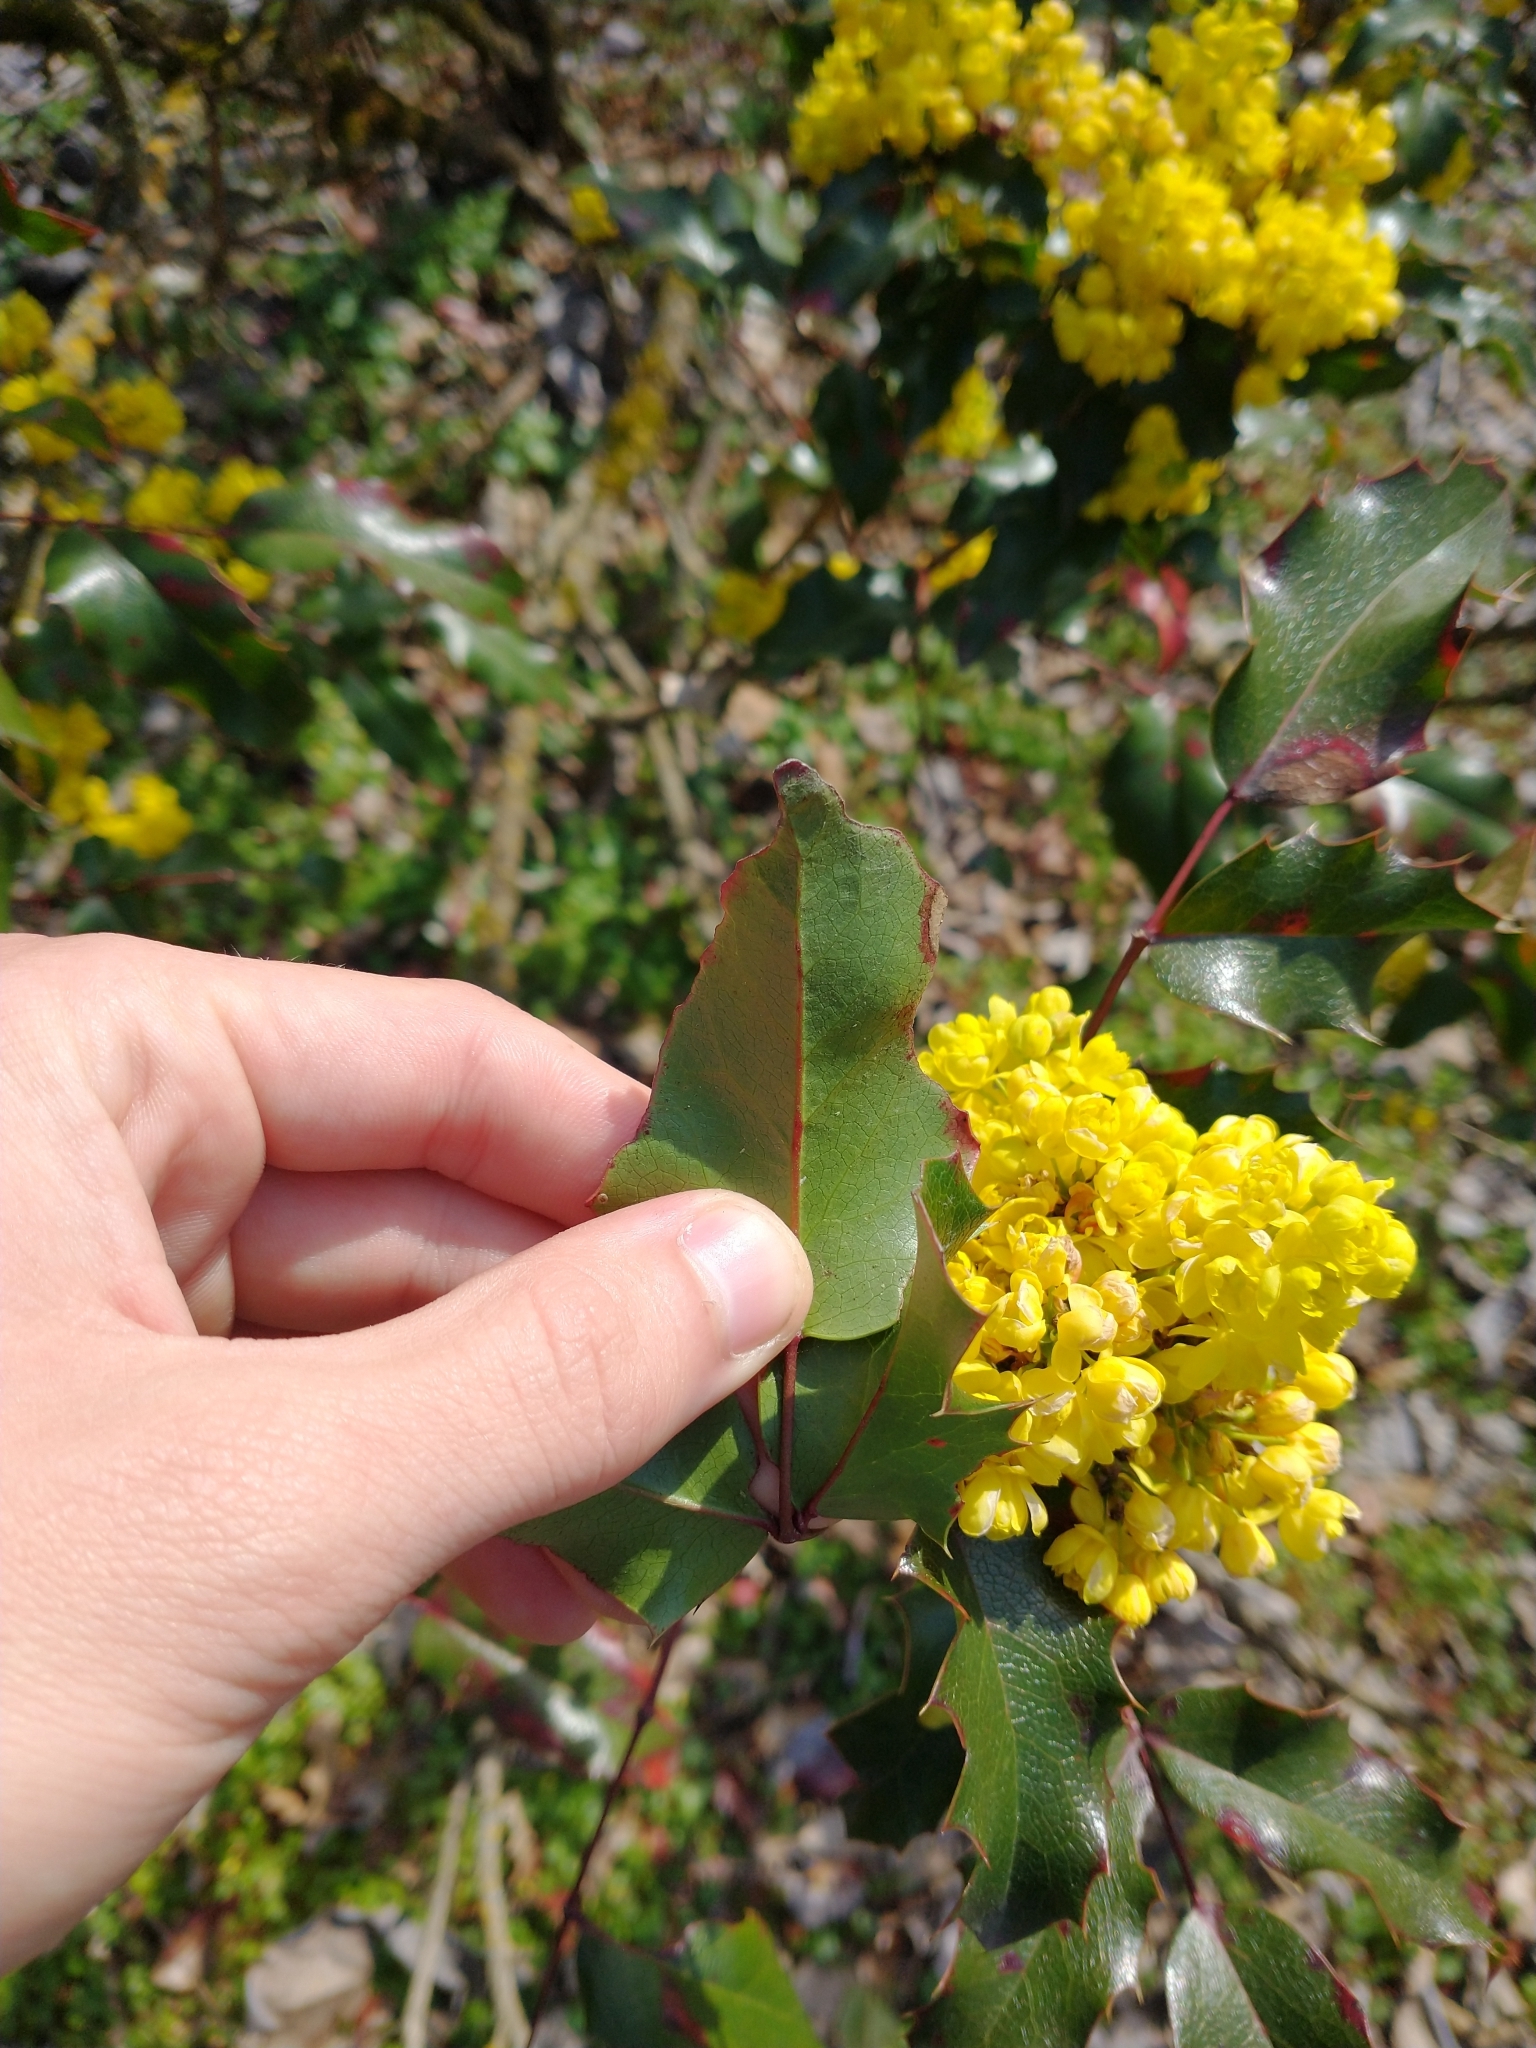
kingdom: Plantae
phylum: Tracheophyta
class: Magnoliopsida
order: Ranunculales
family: Berberidaceae
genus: Mahonia
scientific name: Mahonia aquifolium
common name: Oregon-grape
